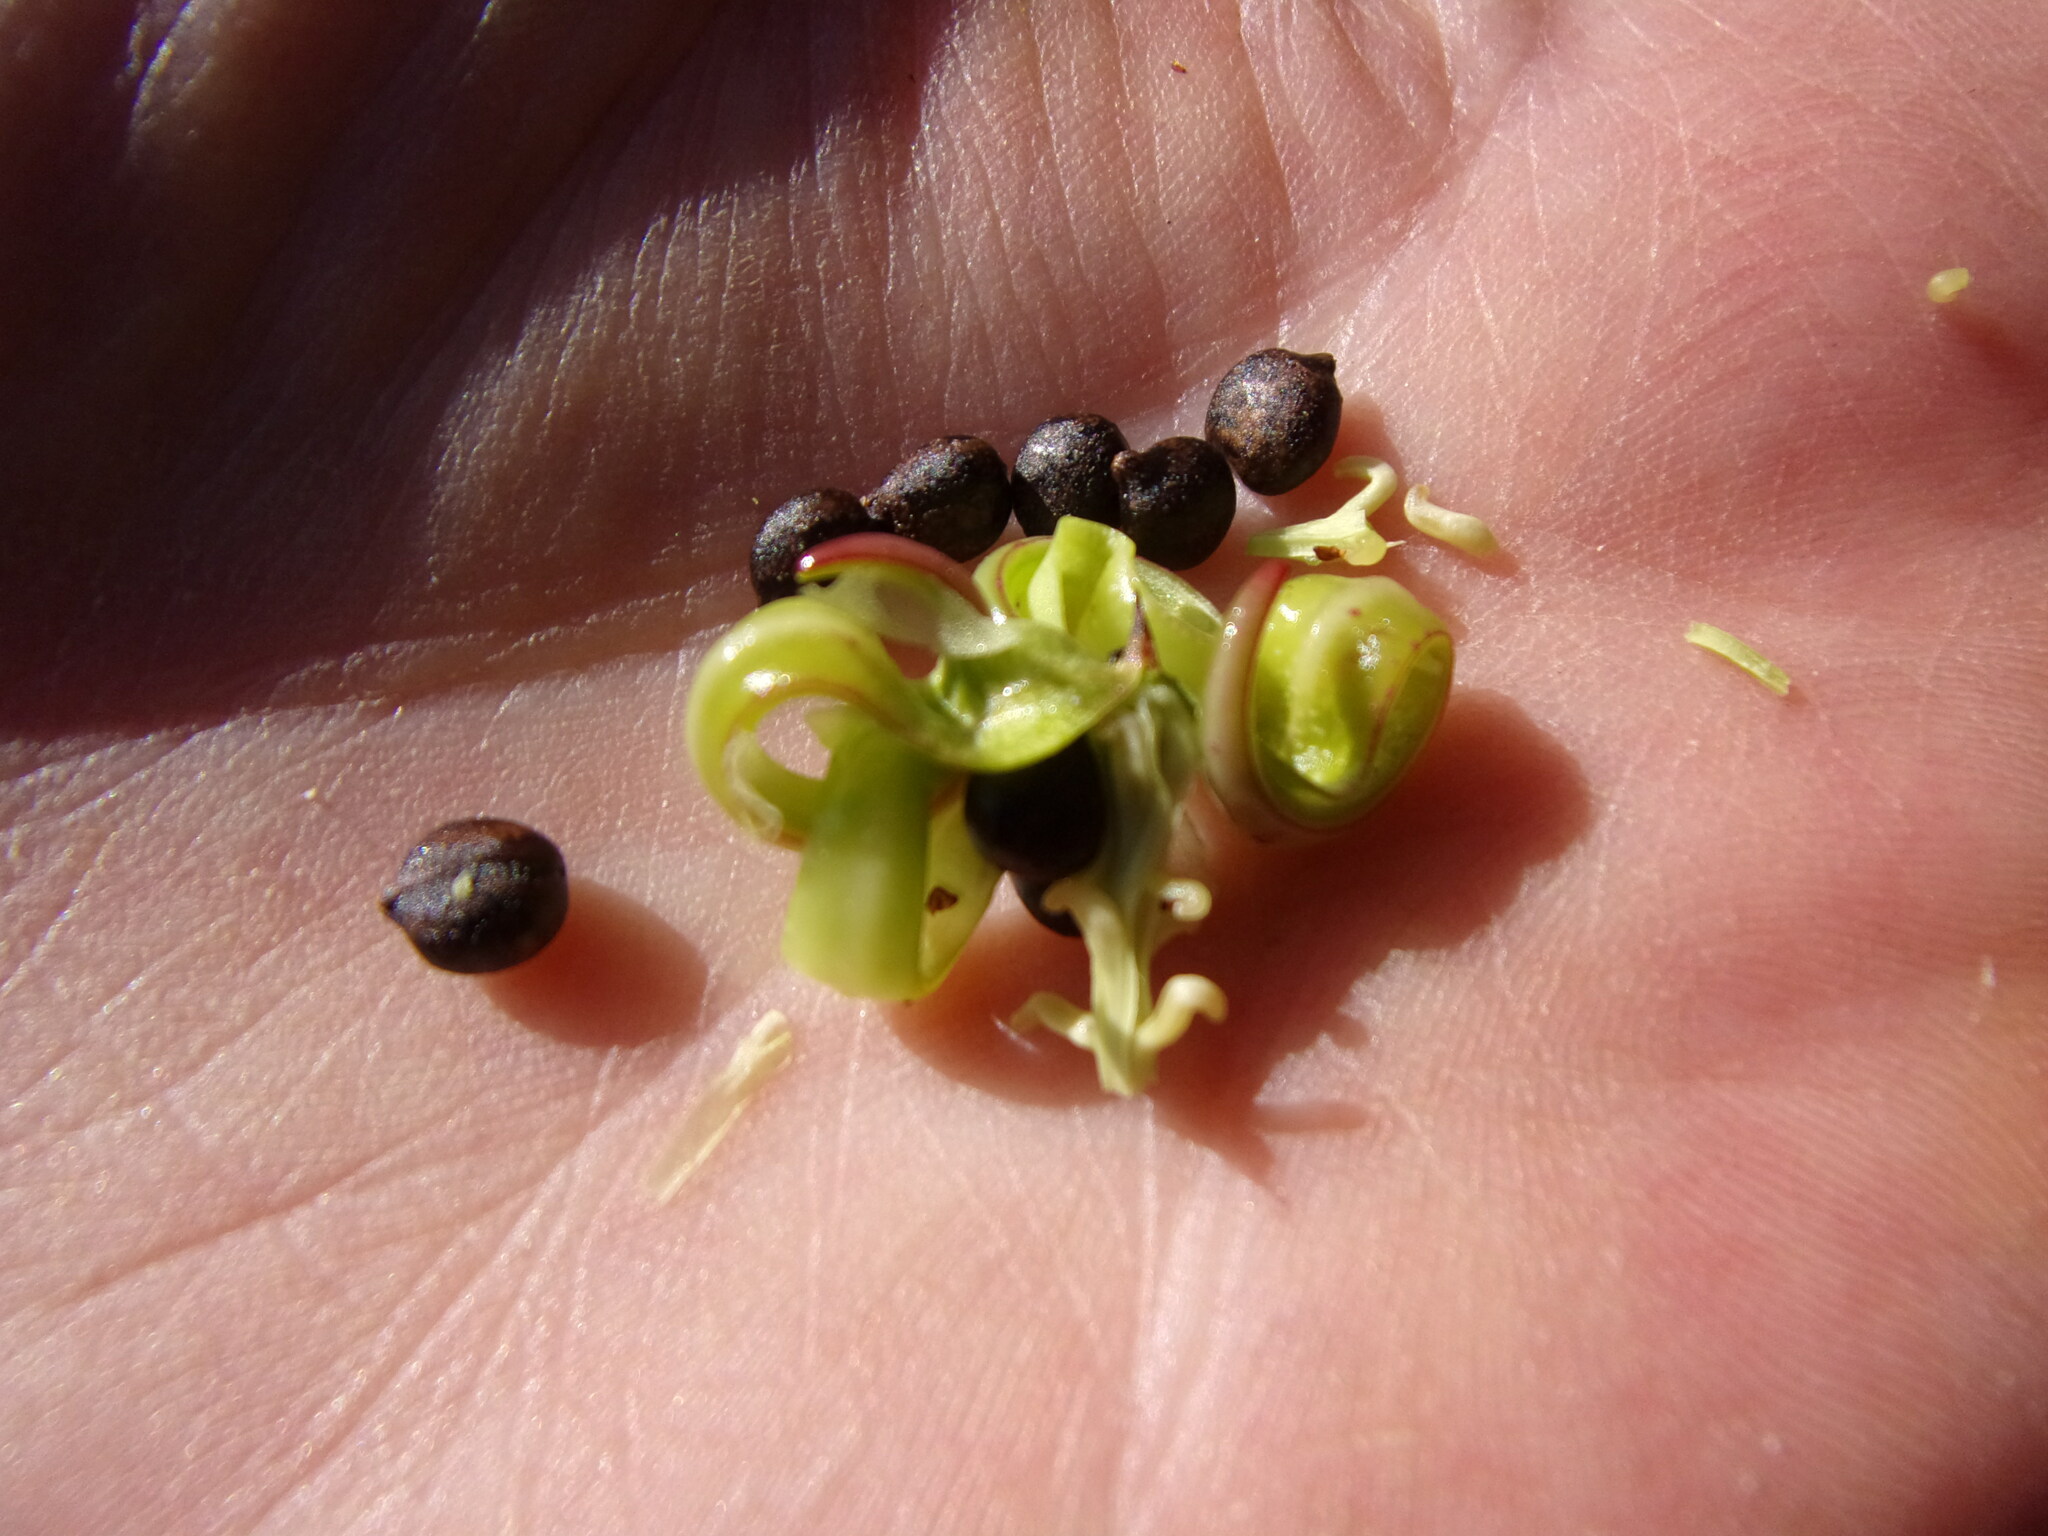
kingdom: Plantae
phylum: Tracheophyta
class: Magnoliopsida
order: Ericales
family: Balsaminaceae
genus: Impatiens
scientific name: Impatiens glandulifera
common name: Himalayan balsam
